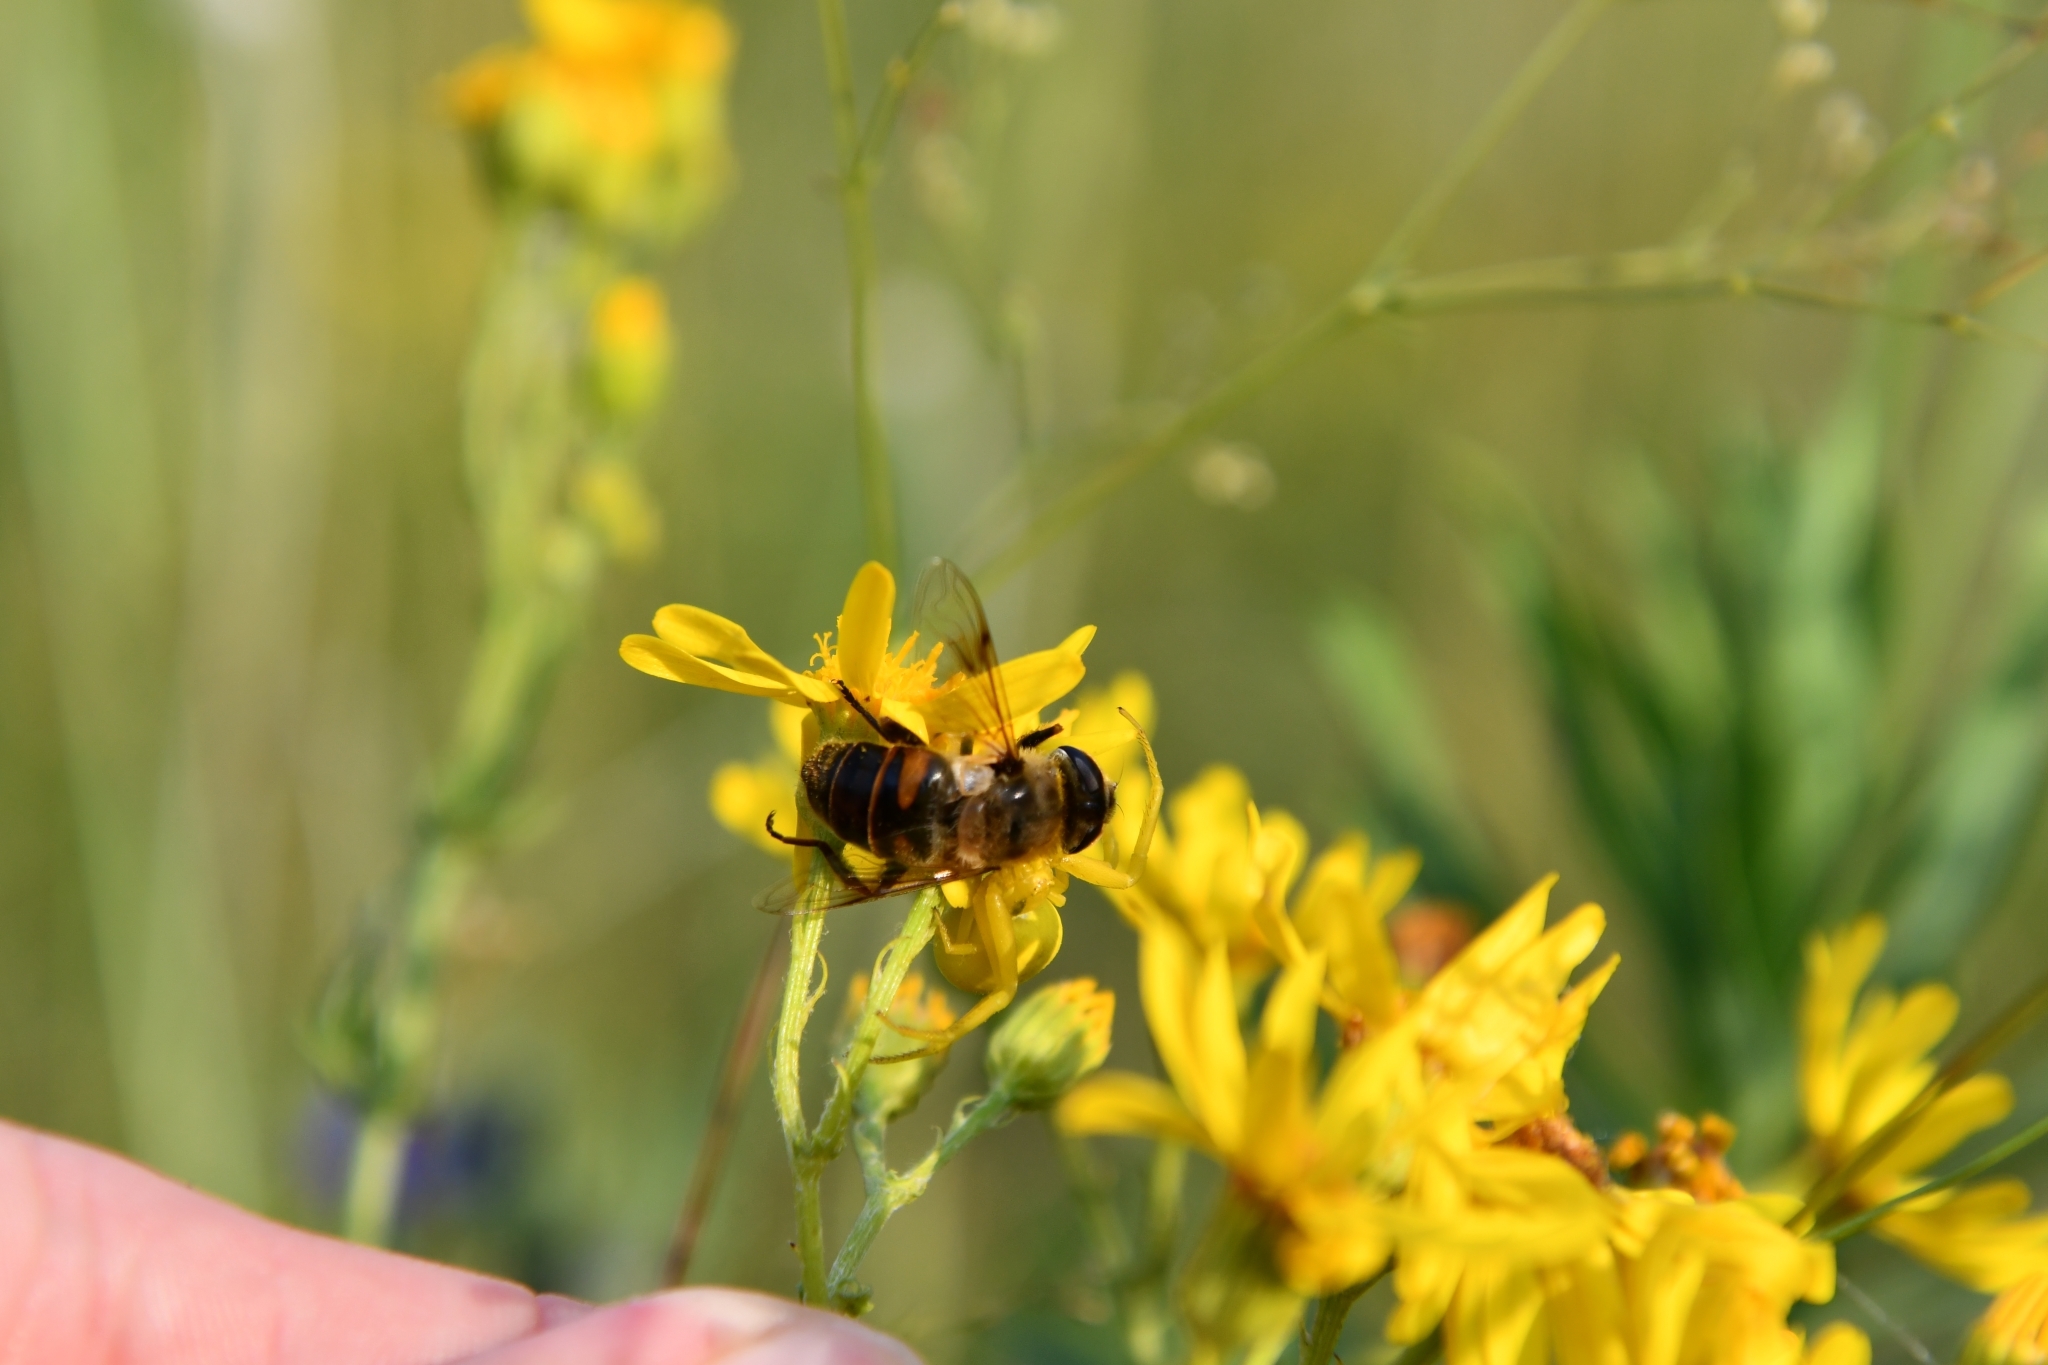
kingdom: Animalia
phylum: Arthropoda
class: Insecta
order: Diptera
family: Syrphidae
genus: Eristalis
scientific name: Eristalis tenax
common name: Drone fly
